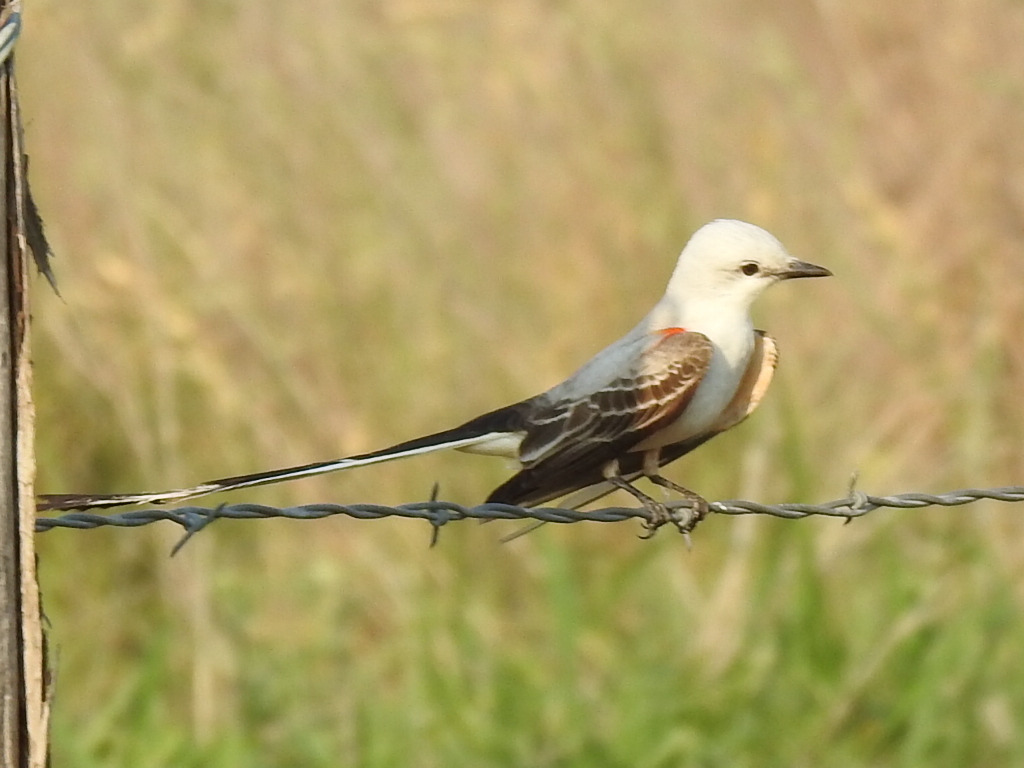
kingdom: Animalia
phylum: Chordata
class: Aves
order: Passeriformes
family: Tyrannidae
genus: Tyrannus
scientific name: Tyrannus forficatus
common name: Scissor-tailed flycatcher
